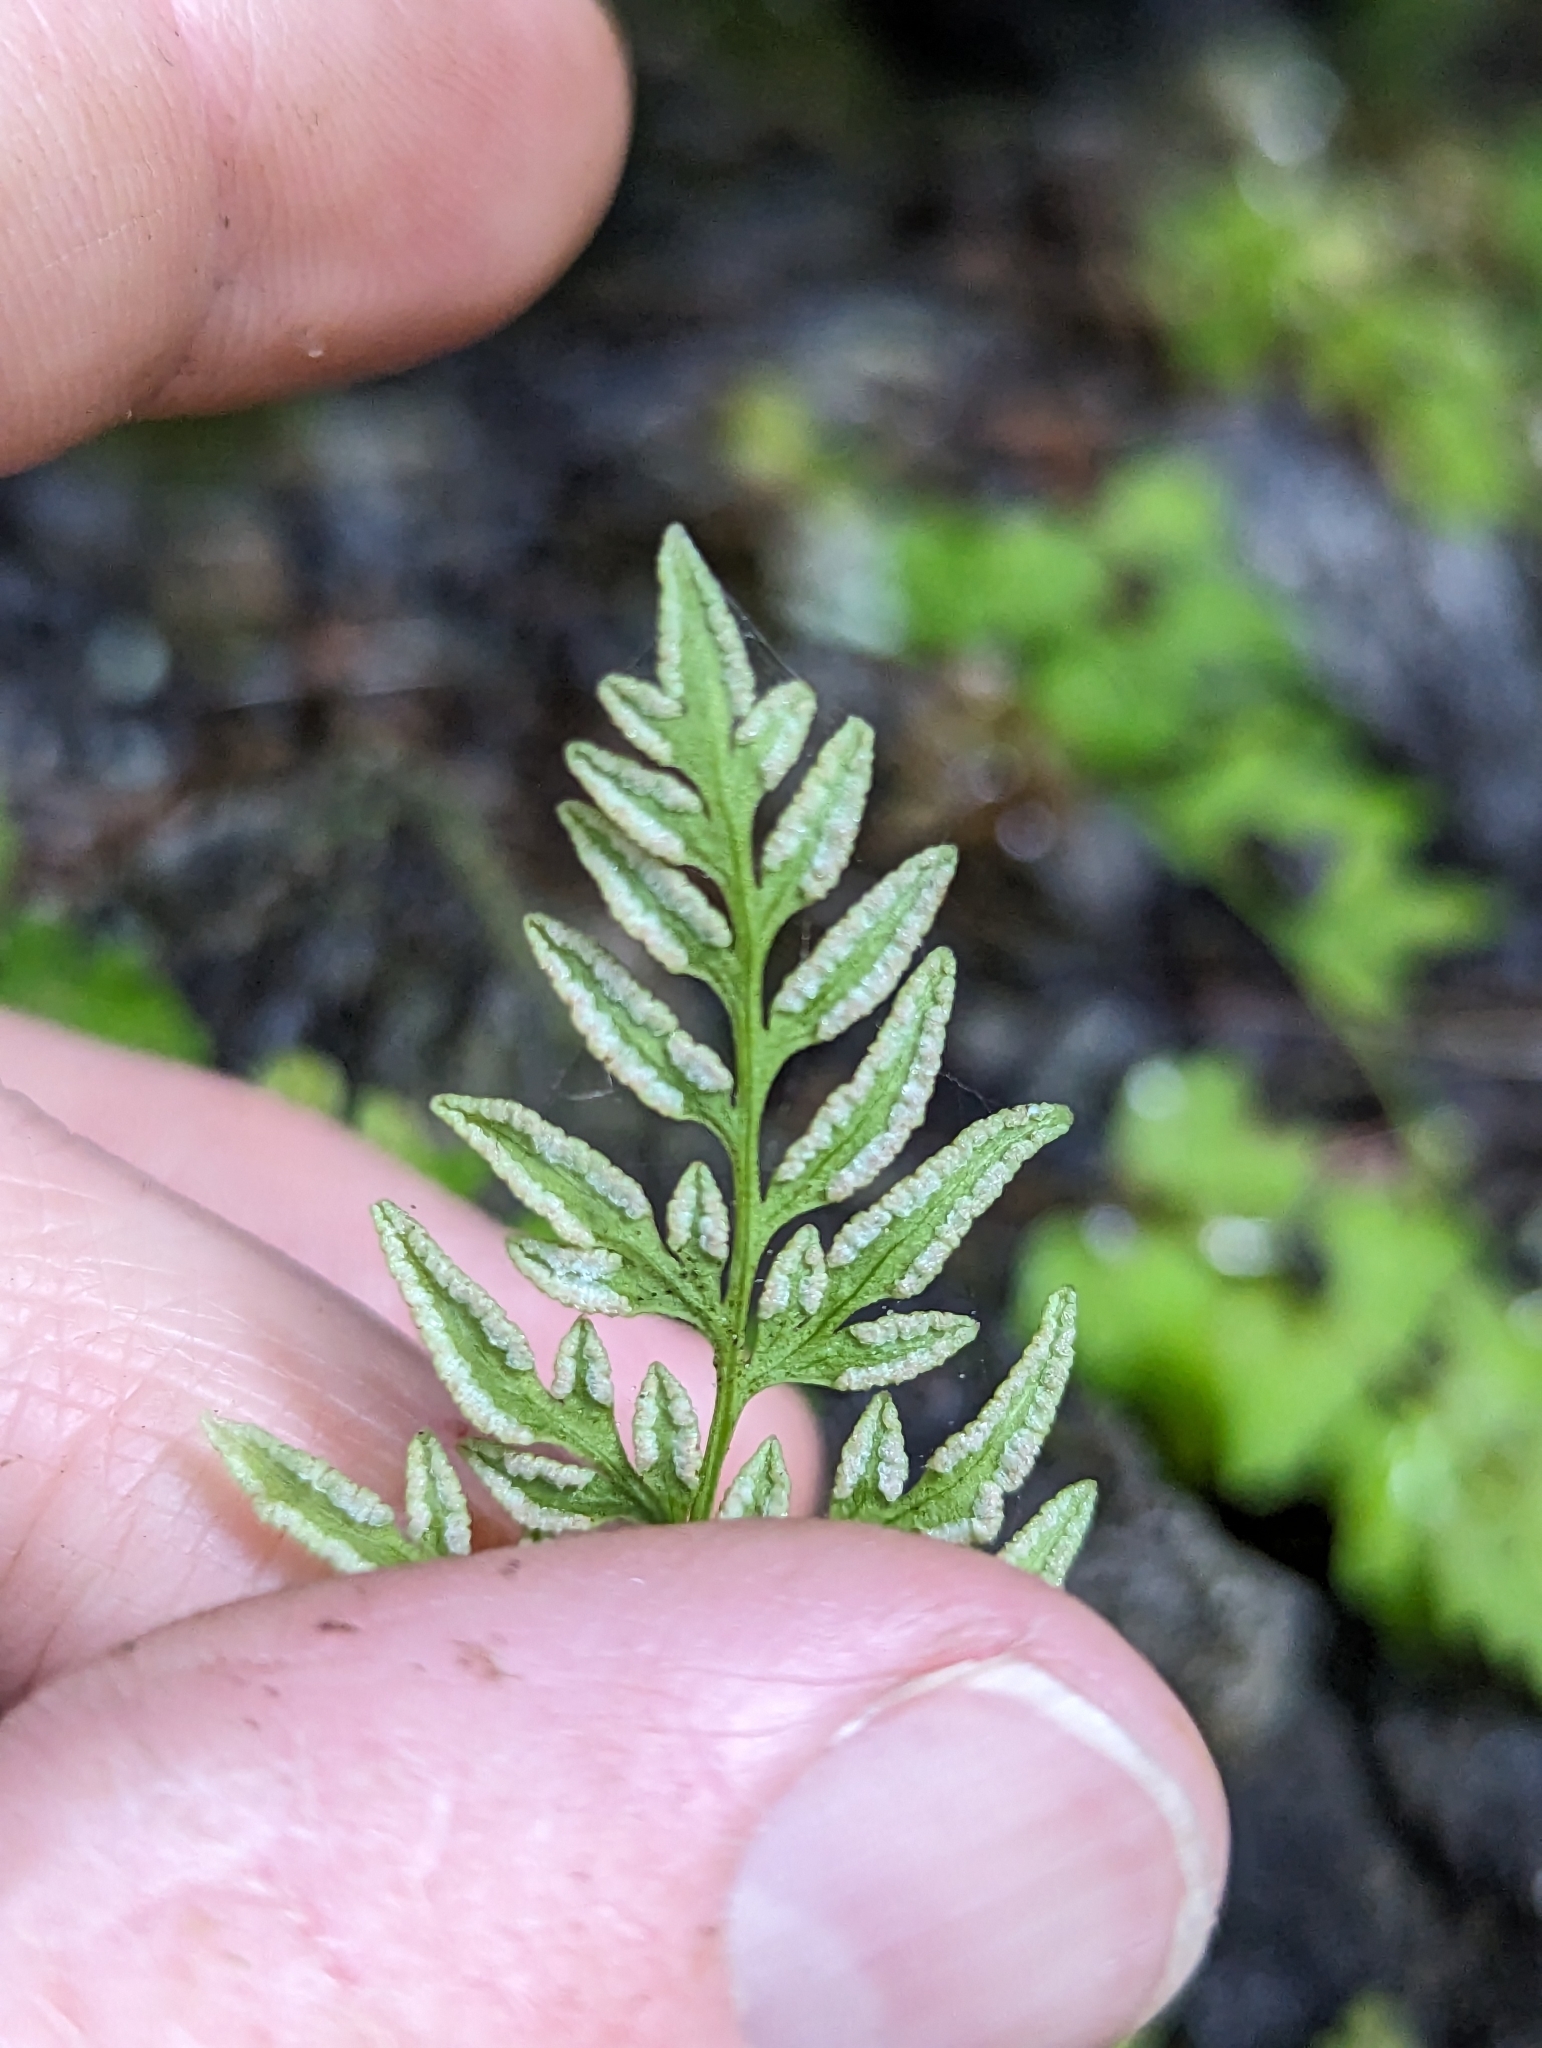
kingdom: Plantae
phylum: Tracheophyta
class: Polypodiopsida
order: Polypodiales
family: Pteridaceae
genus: Cryptogramma
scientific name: Cryptogramma stelleri
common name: Cliff-brake
